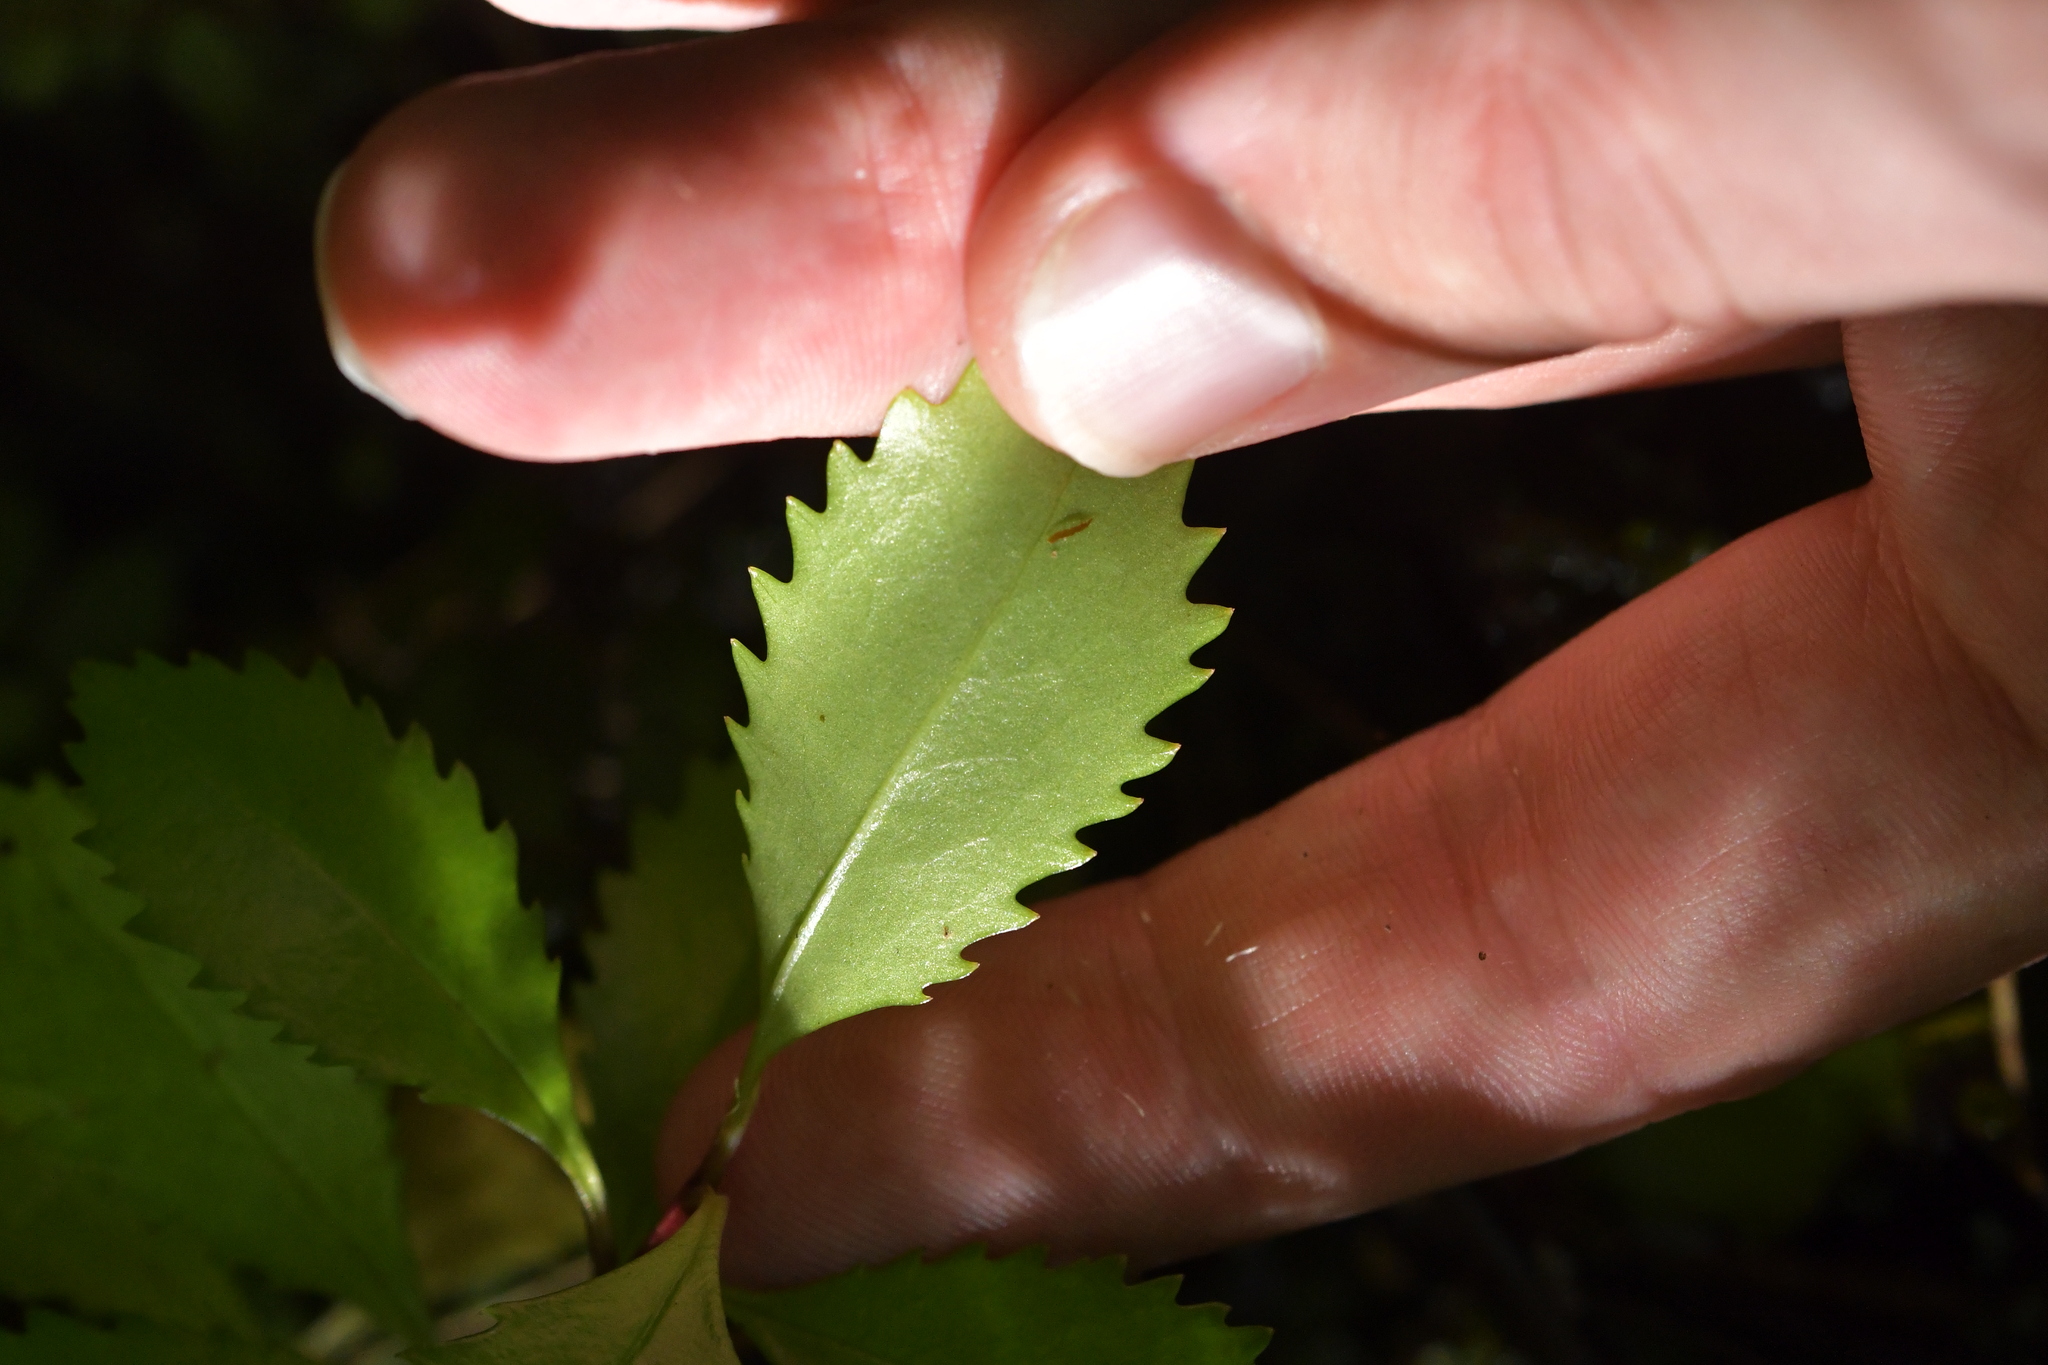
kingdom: Plantae
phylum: Tracheophyta
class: Magnoliopsida
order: Chloranthales
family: Chloranthaceae
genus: Ascarina
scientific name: Ascarina lucida
